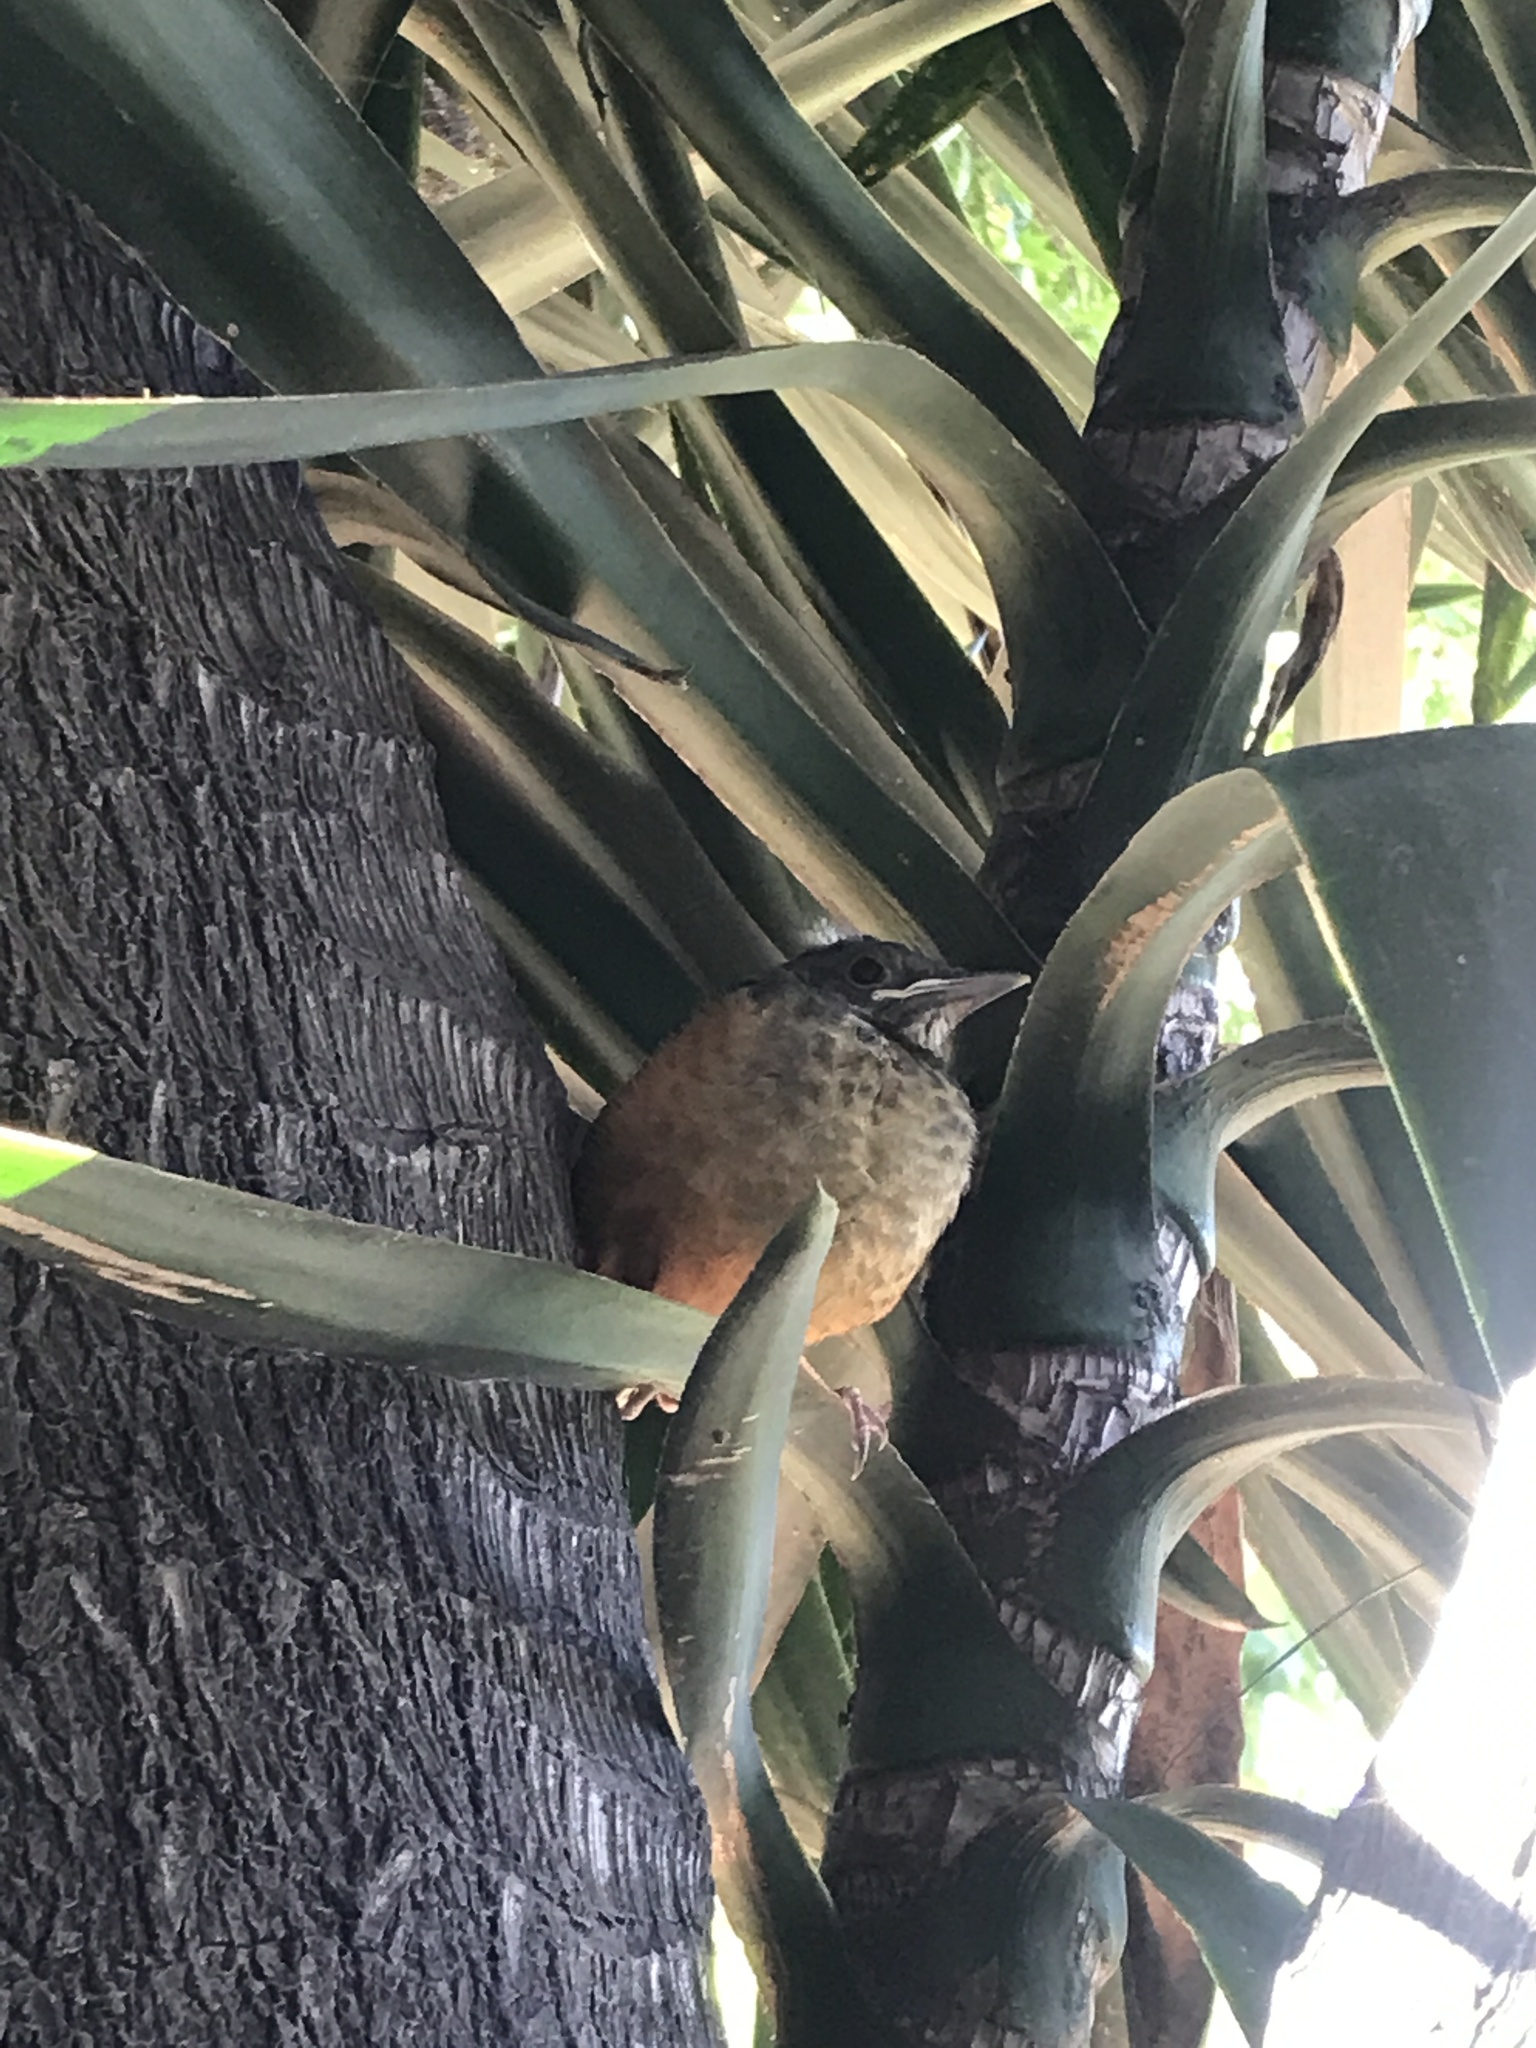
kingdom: Animalia
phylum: Chordata
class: Aves
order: Passeriformes
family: Turdidae
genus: Turdus
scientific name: Turdus rufiventris
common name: Rufous-bellied thrush
